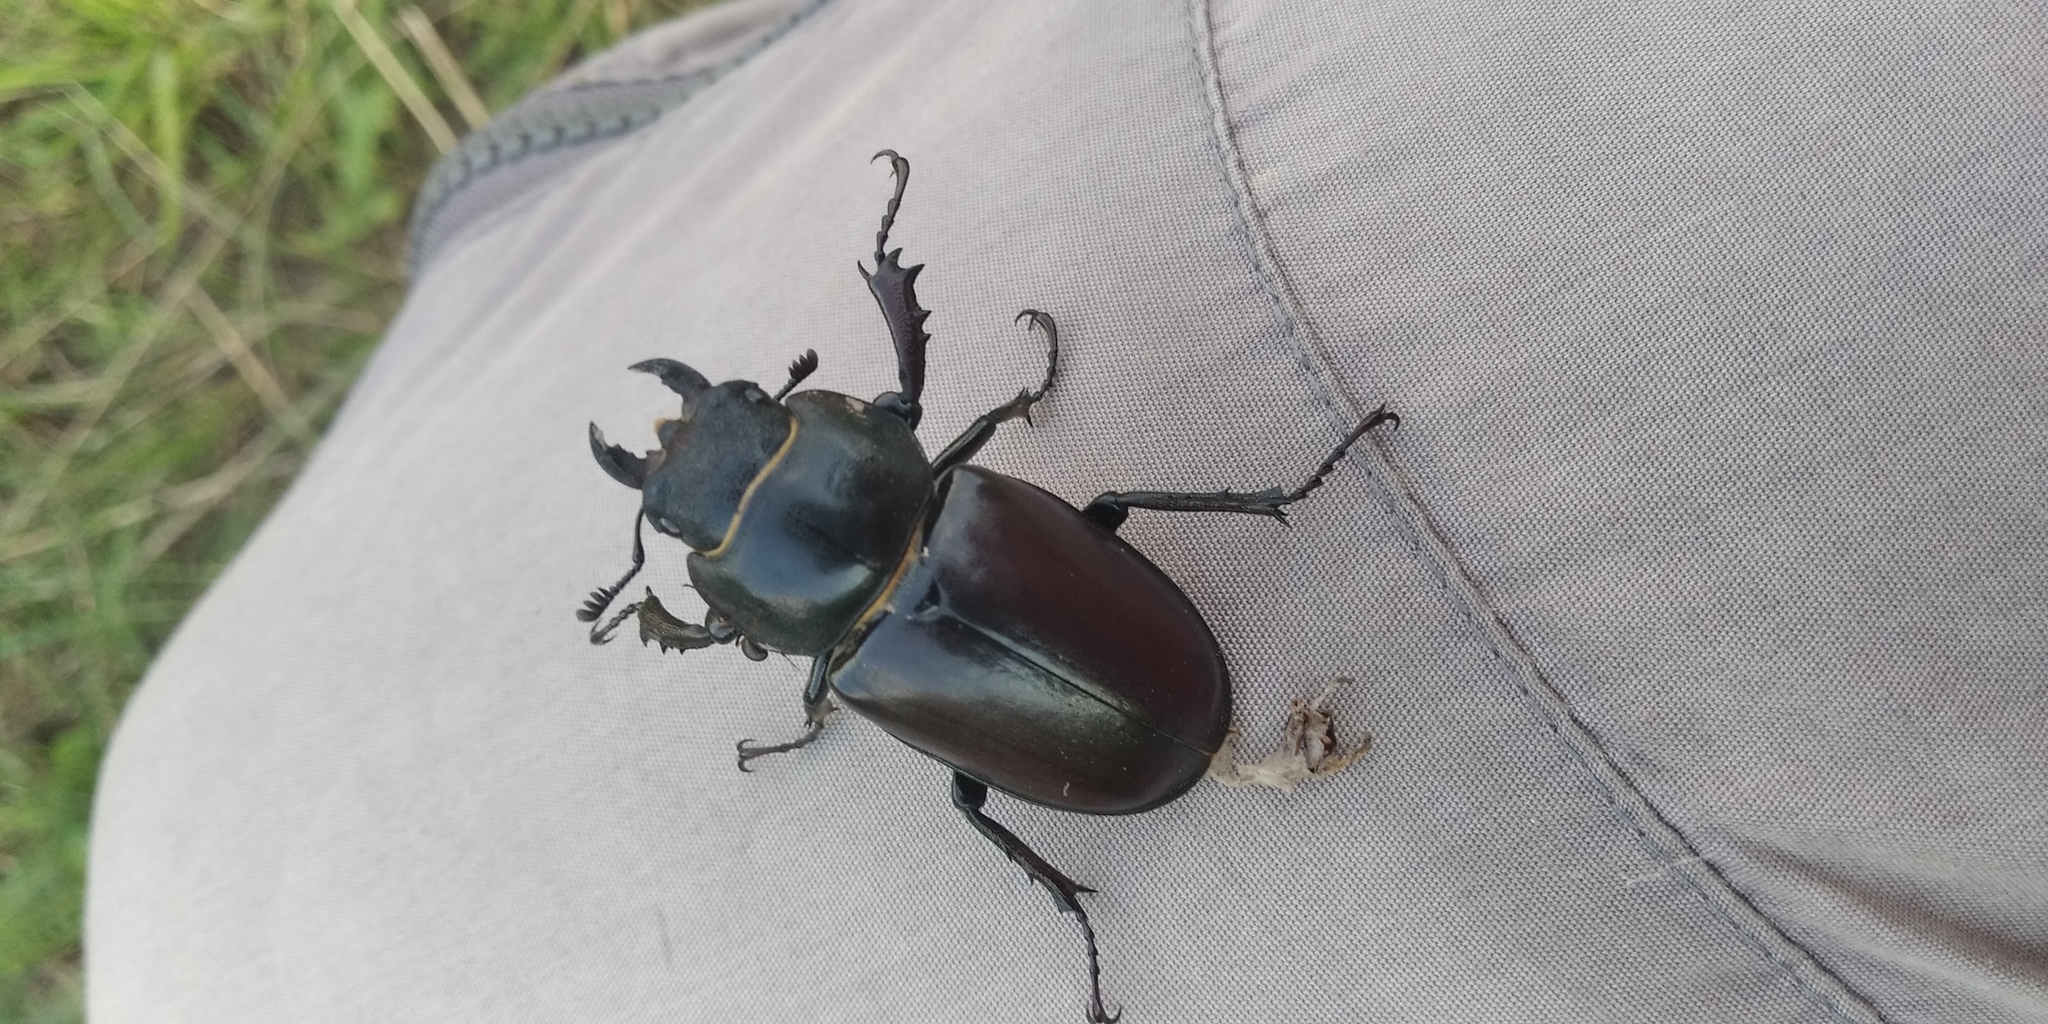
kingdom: Animalia
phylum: Arthropoda
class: Insecta
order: Coleoptera
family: Lucanidae
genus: Lucanus
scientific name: Lucanus cervus
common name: Stag beetle
